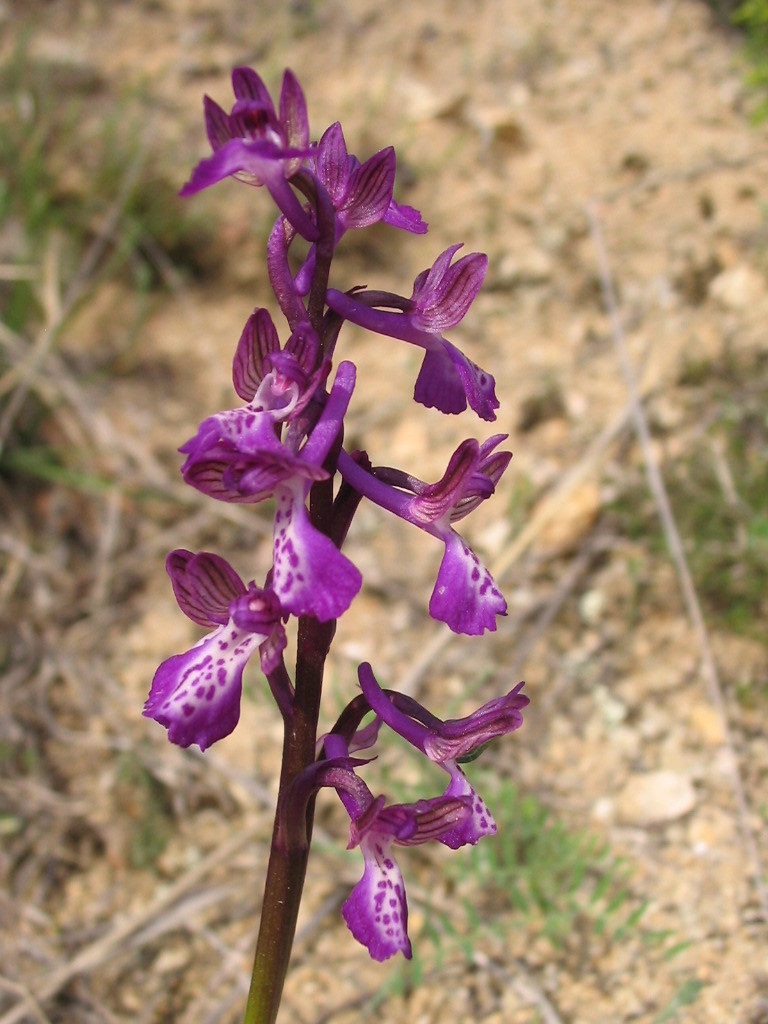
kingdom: Plantae
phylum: Tracheophyta
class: Liliopsida
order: Asparagales
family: Orchidaceae
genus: Anacamptis
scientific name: Anacamptis morio
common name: Green-winged orchid
